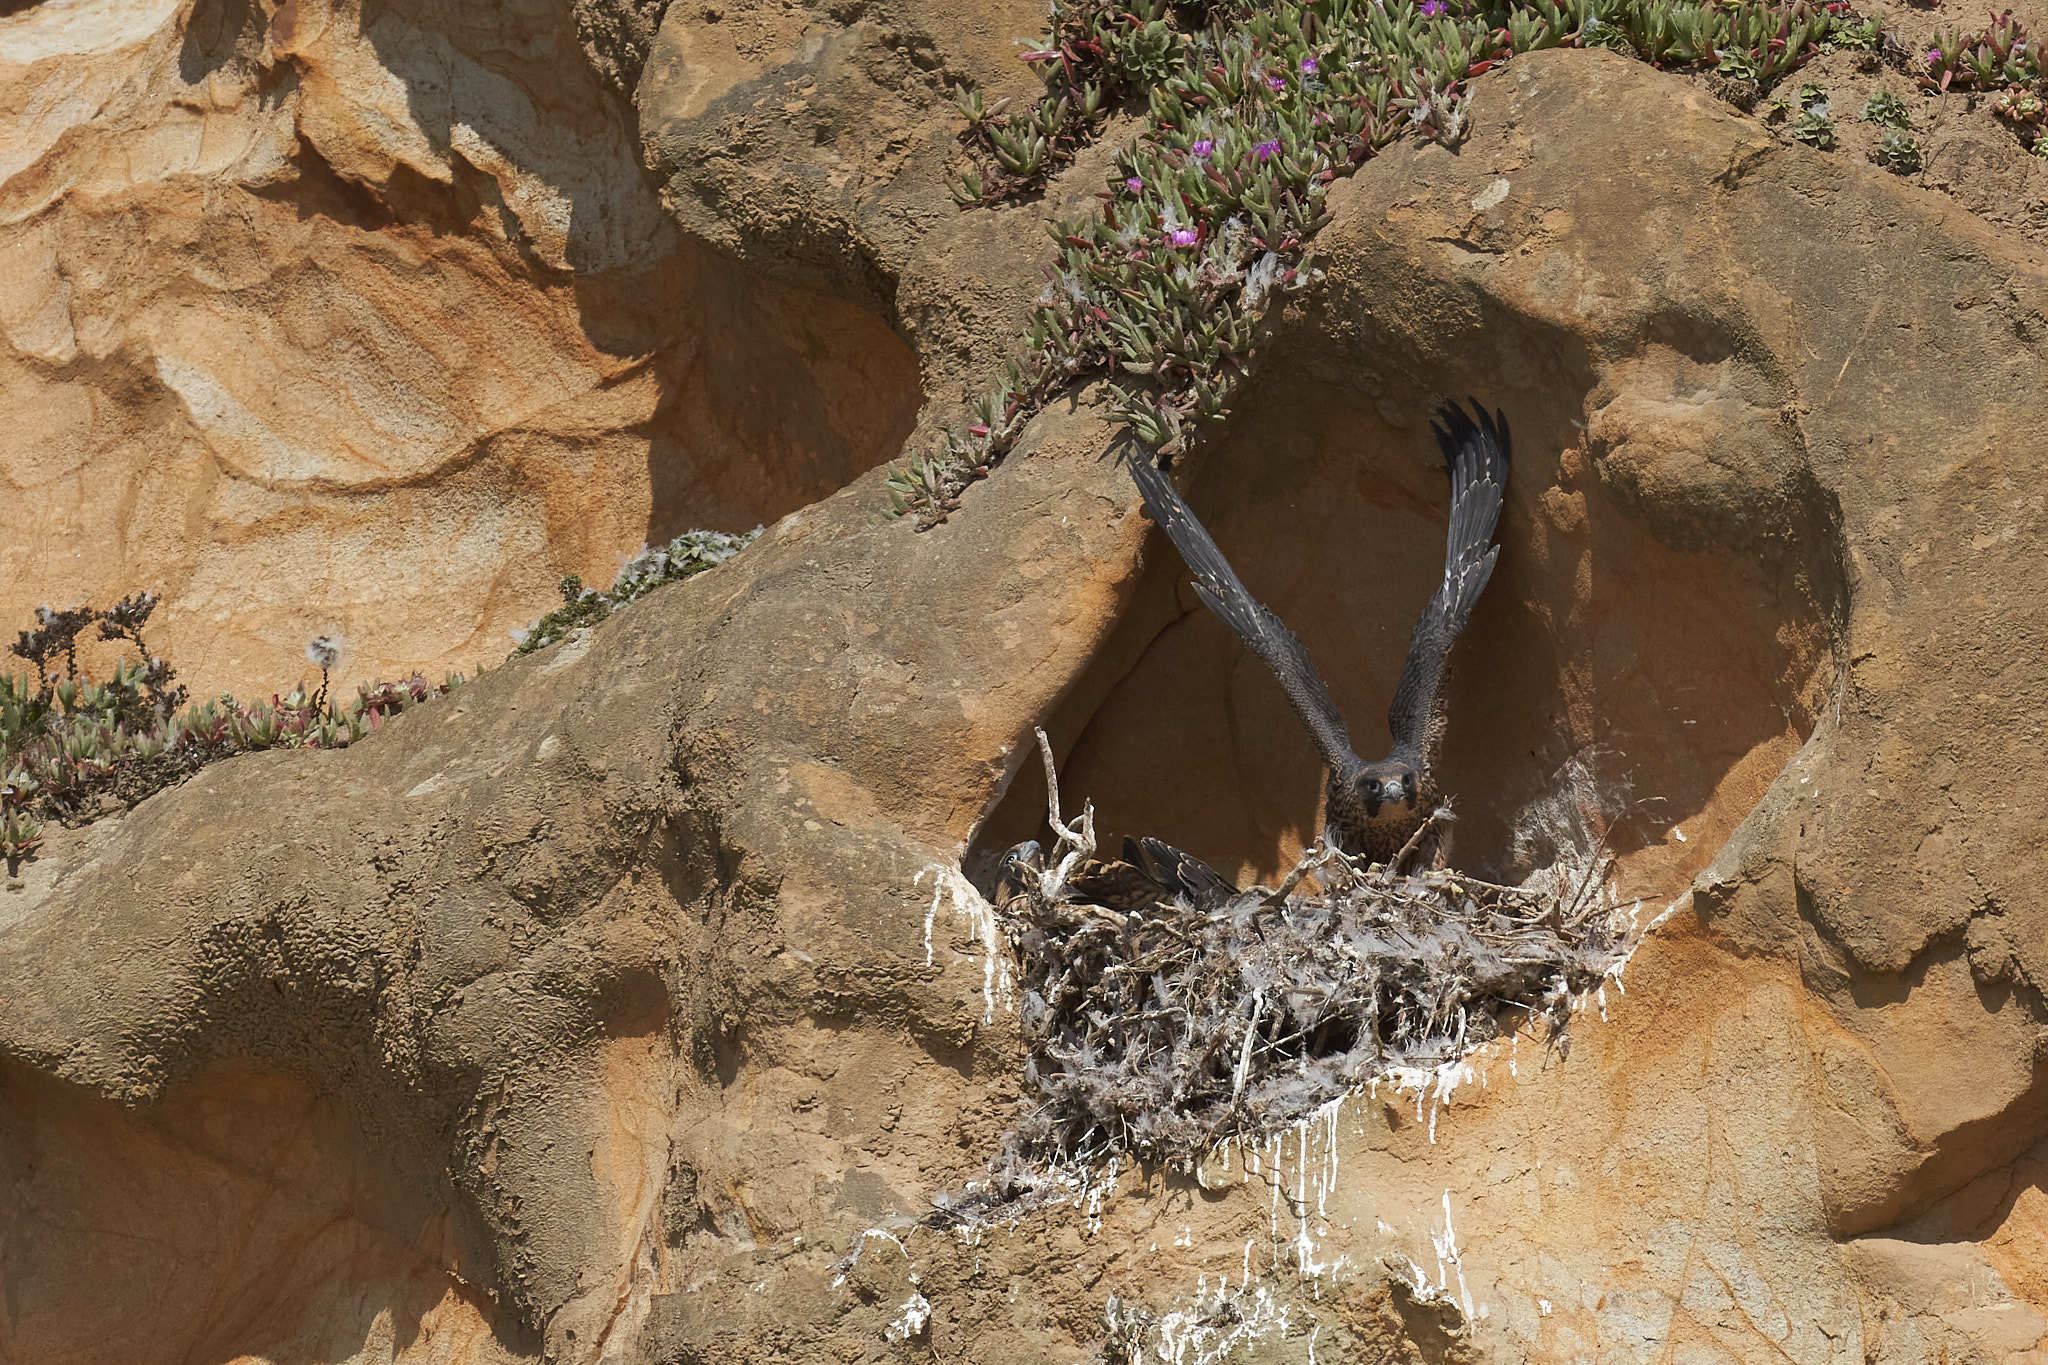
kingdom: Animalia
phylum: Chordata
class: Aves
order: Falconiformes
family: Falconidae
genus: Falco
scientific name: Falco peregrinus
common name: Peregrine falcon
